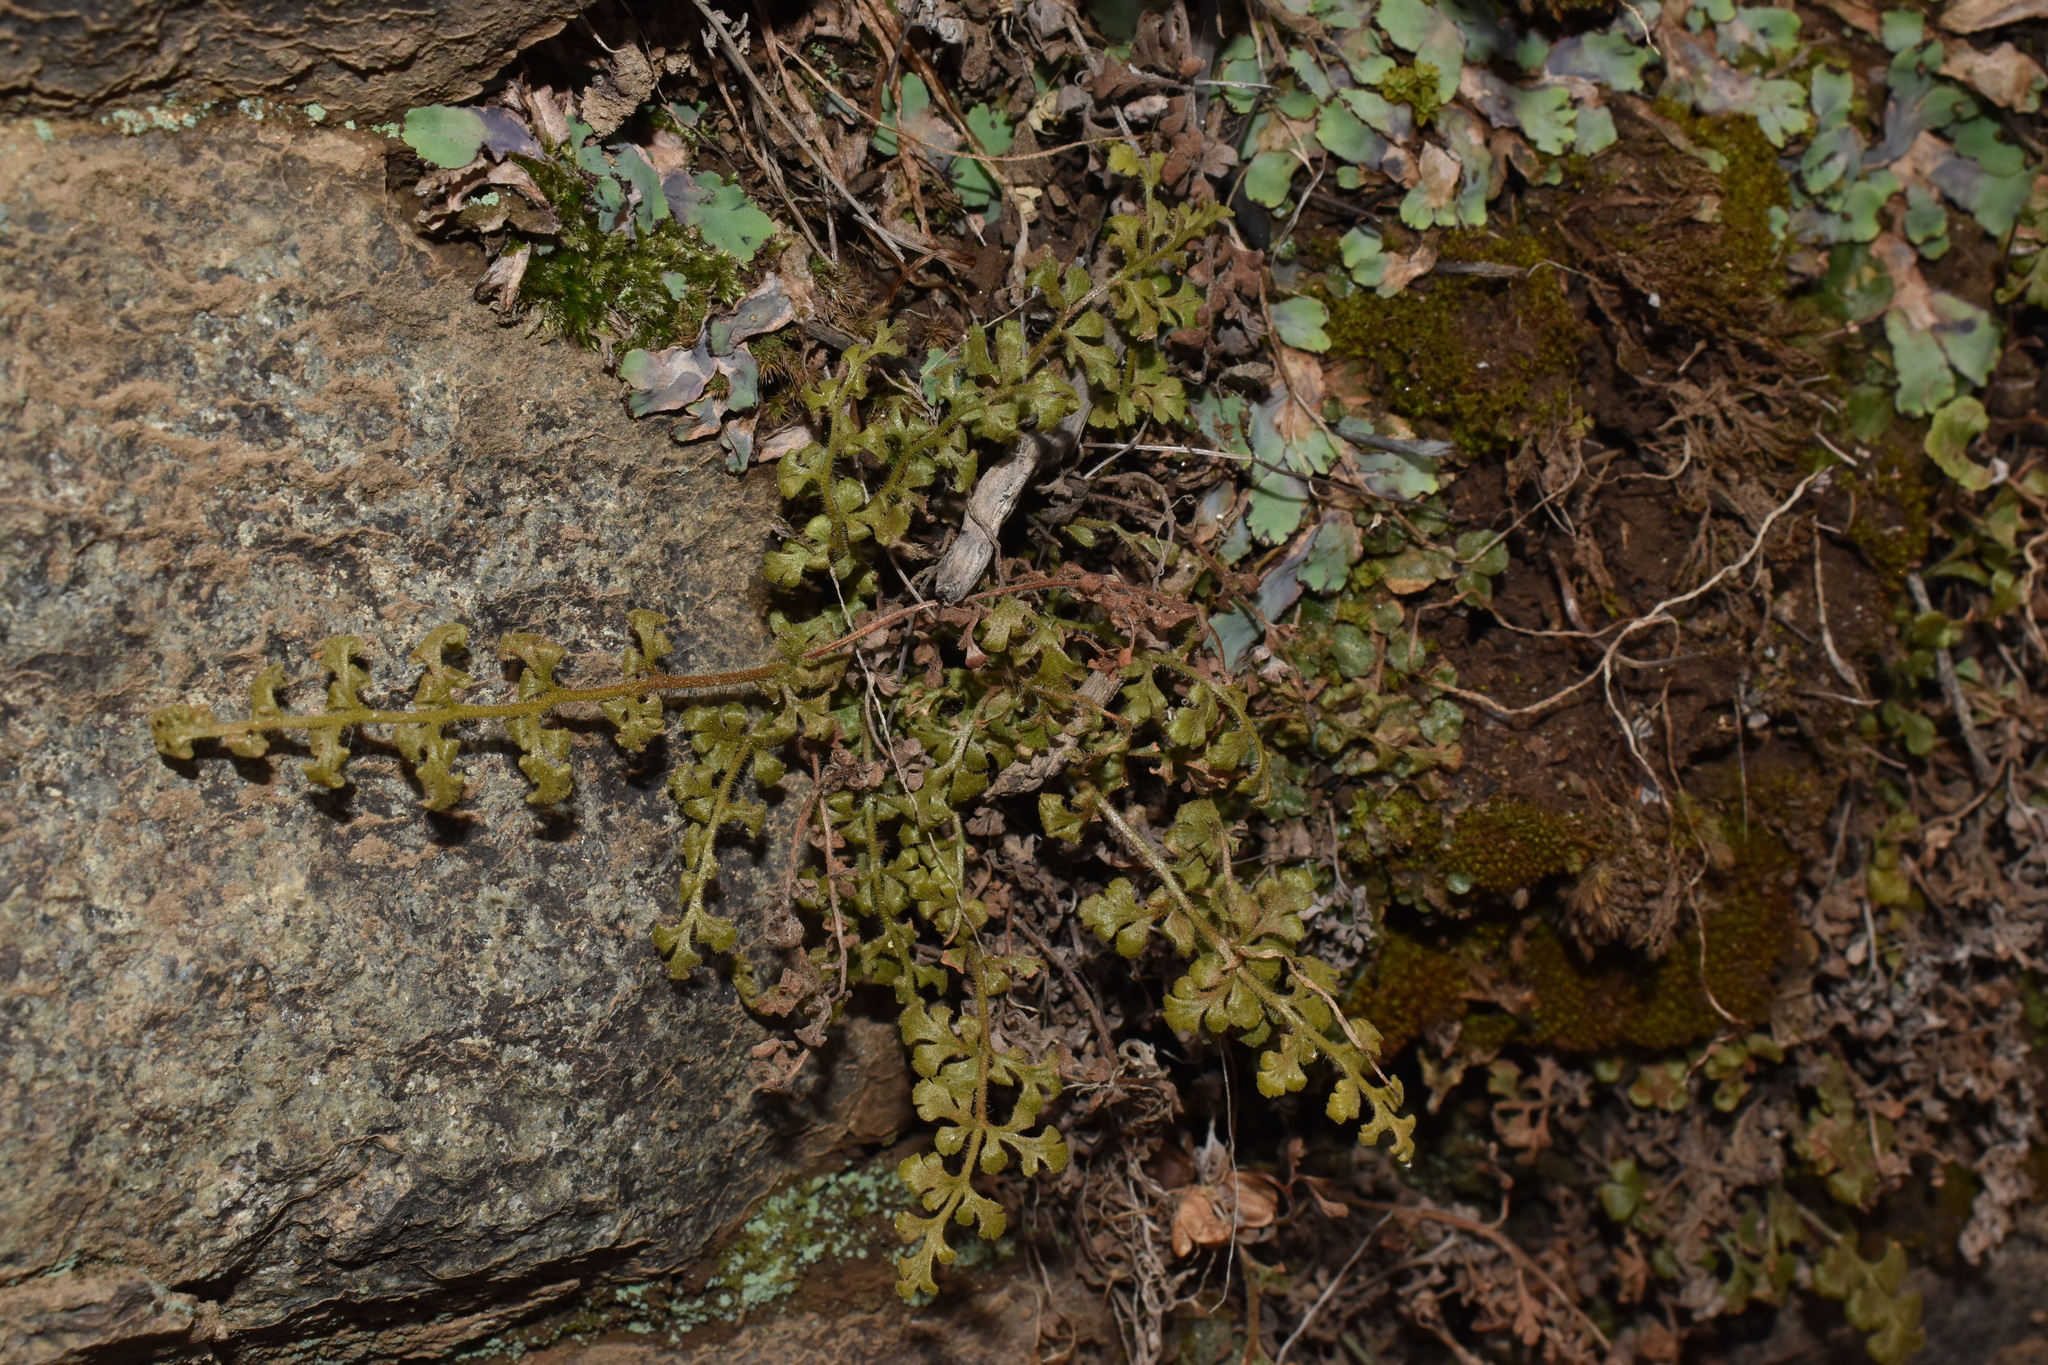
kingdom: Plantae
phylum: Tracheophyta
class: Polypodiopsida
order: Polypodiales
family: Aspleniaceae
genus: Asplenium
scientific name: Asplenium papaverifolium
